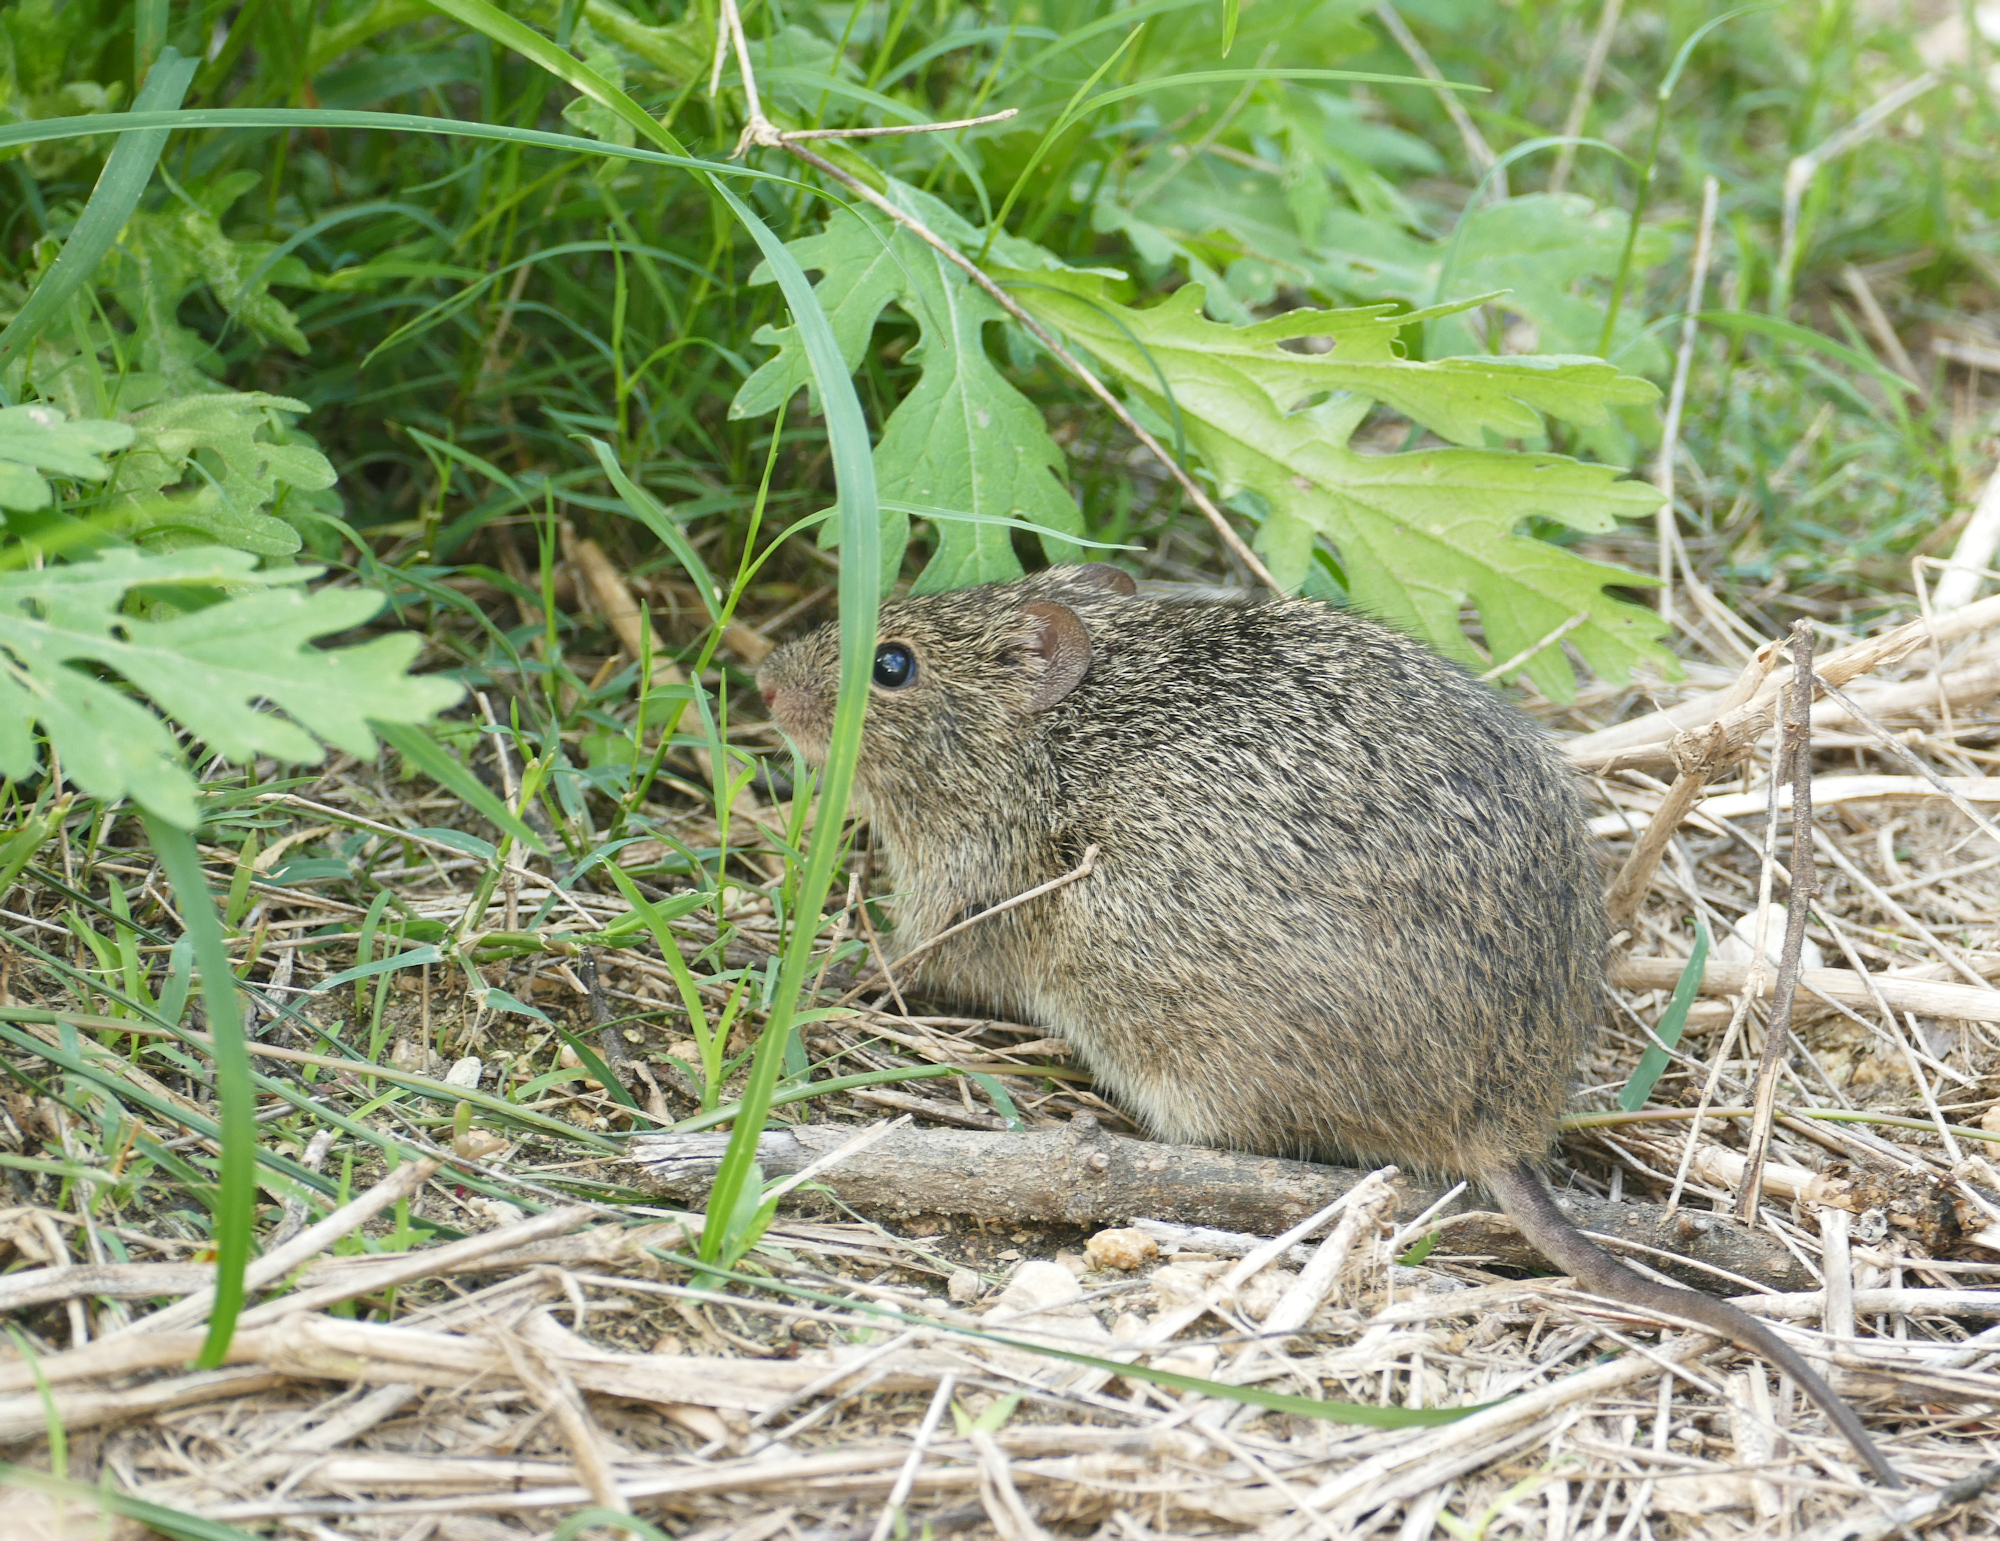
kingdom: Animalia
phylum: Chordata
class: Mammalia
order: Rodentia
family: Cricetidae
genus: Sigmodon
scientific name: Sigmodon hispidus
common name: Hispid cotton rat
